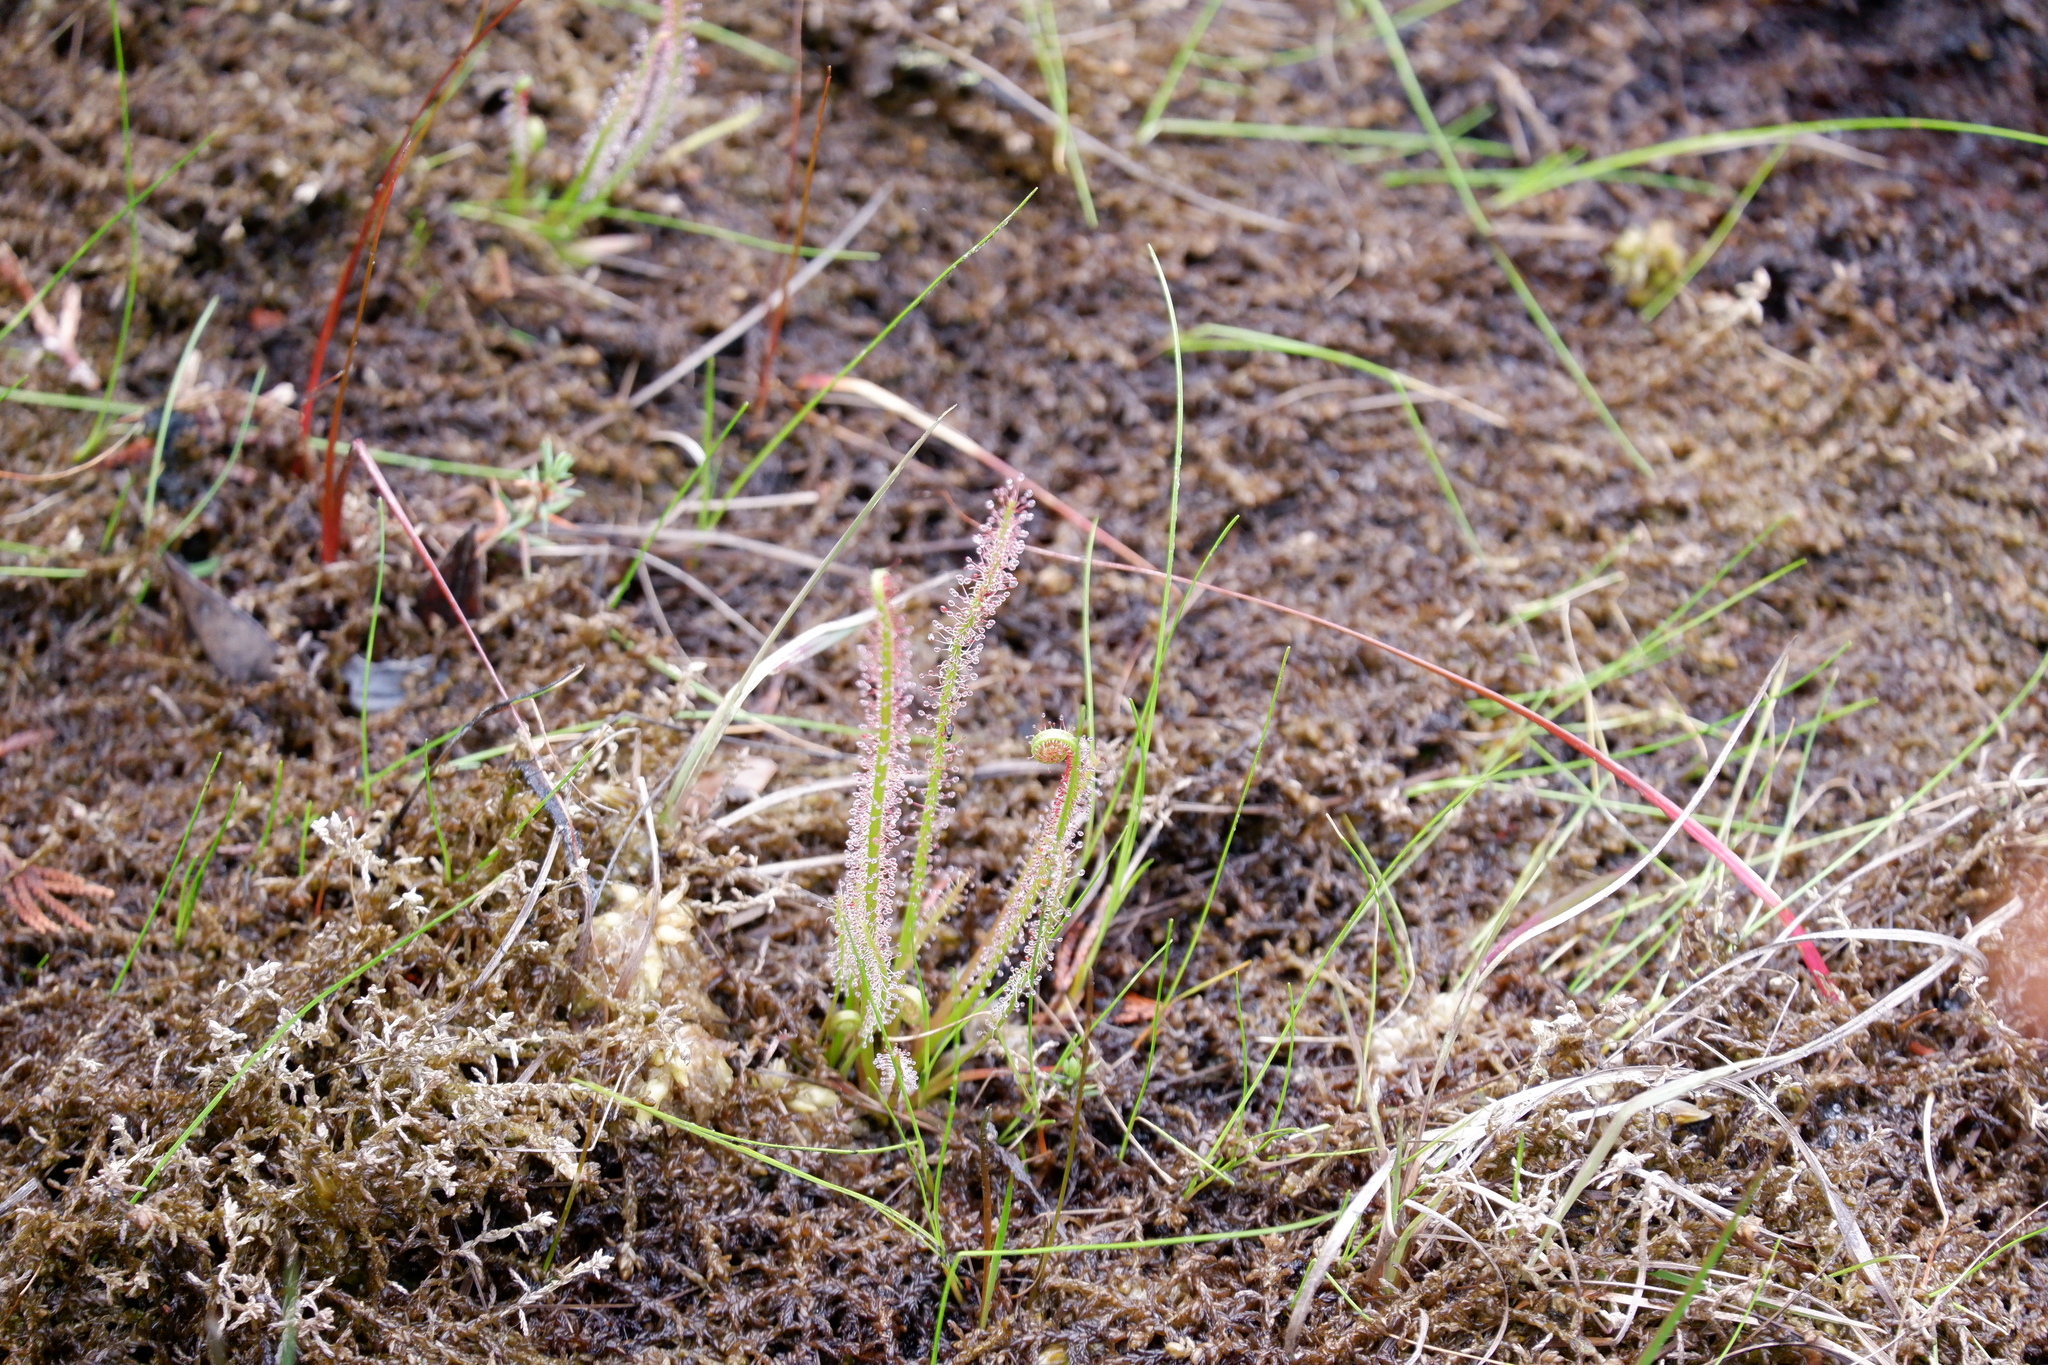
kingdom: Plantae
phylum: Tracheophyta
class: Magnoliopsida
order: Caryophyllales
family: Droseraceae
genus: Drosera
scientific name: Drosera filiformis
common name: Dew-thread
